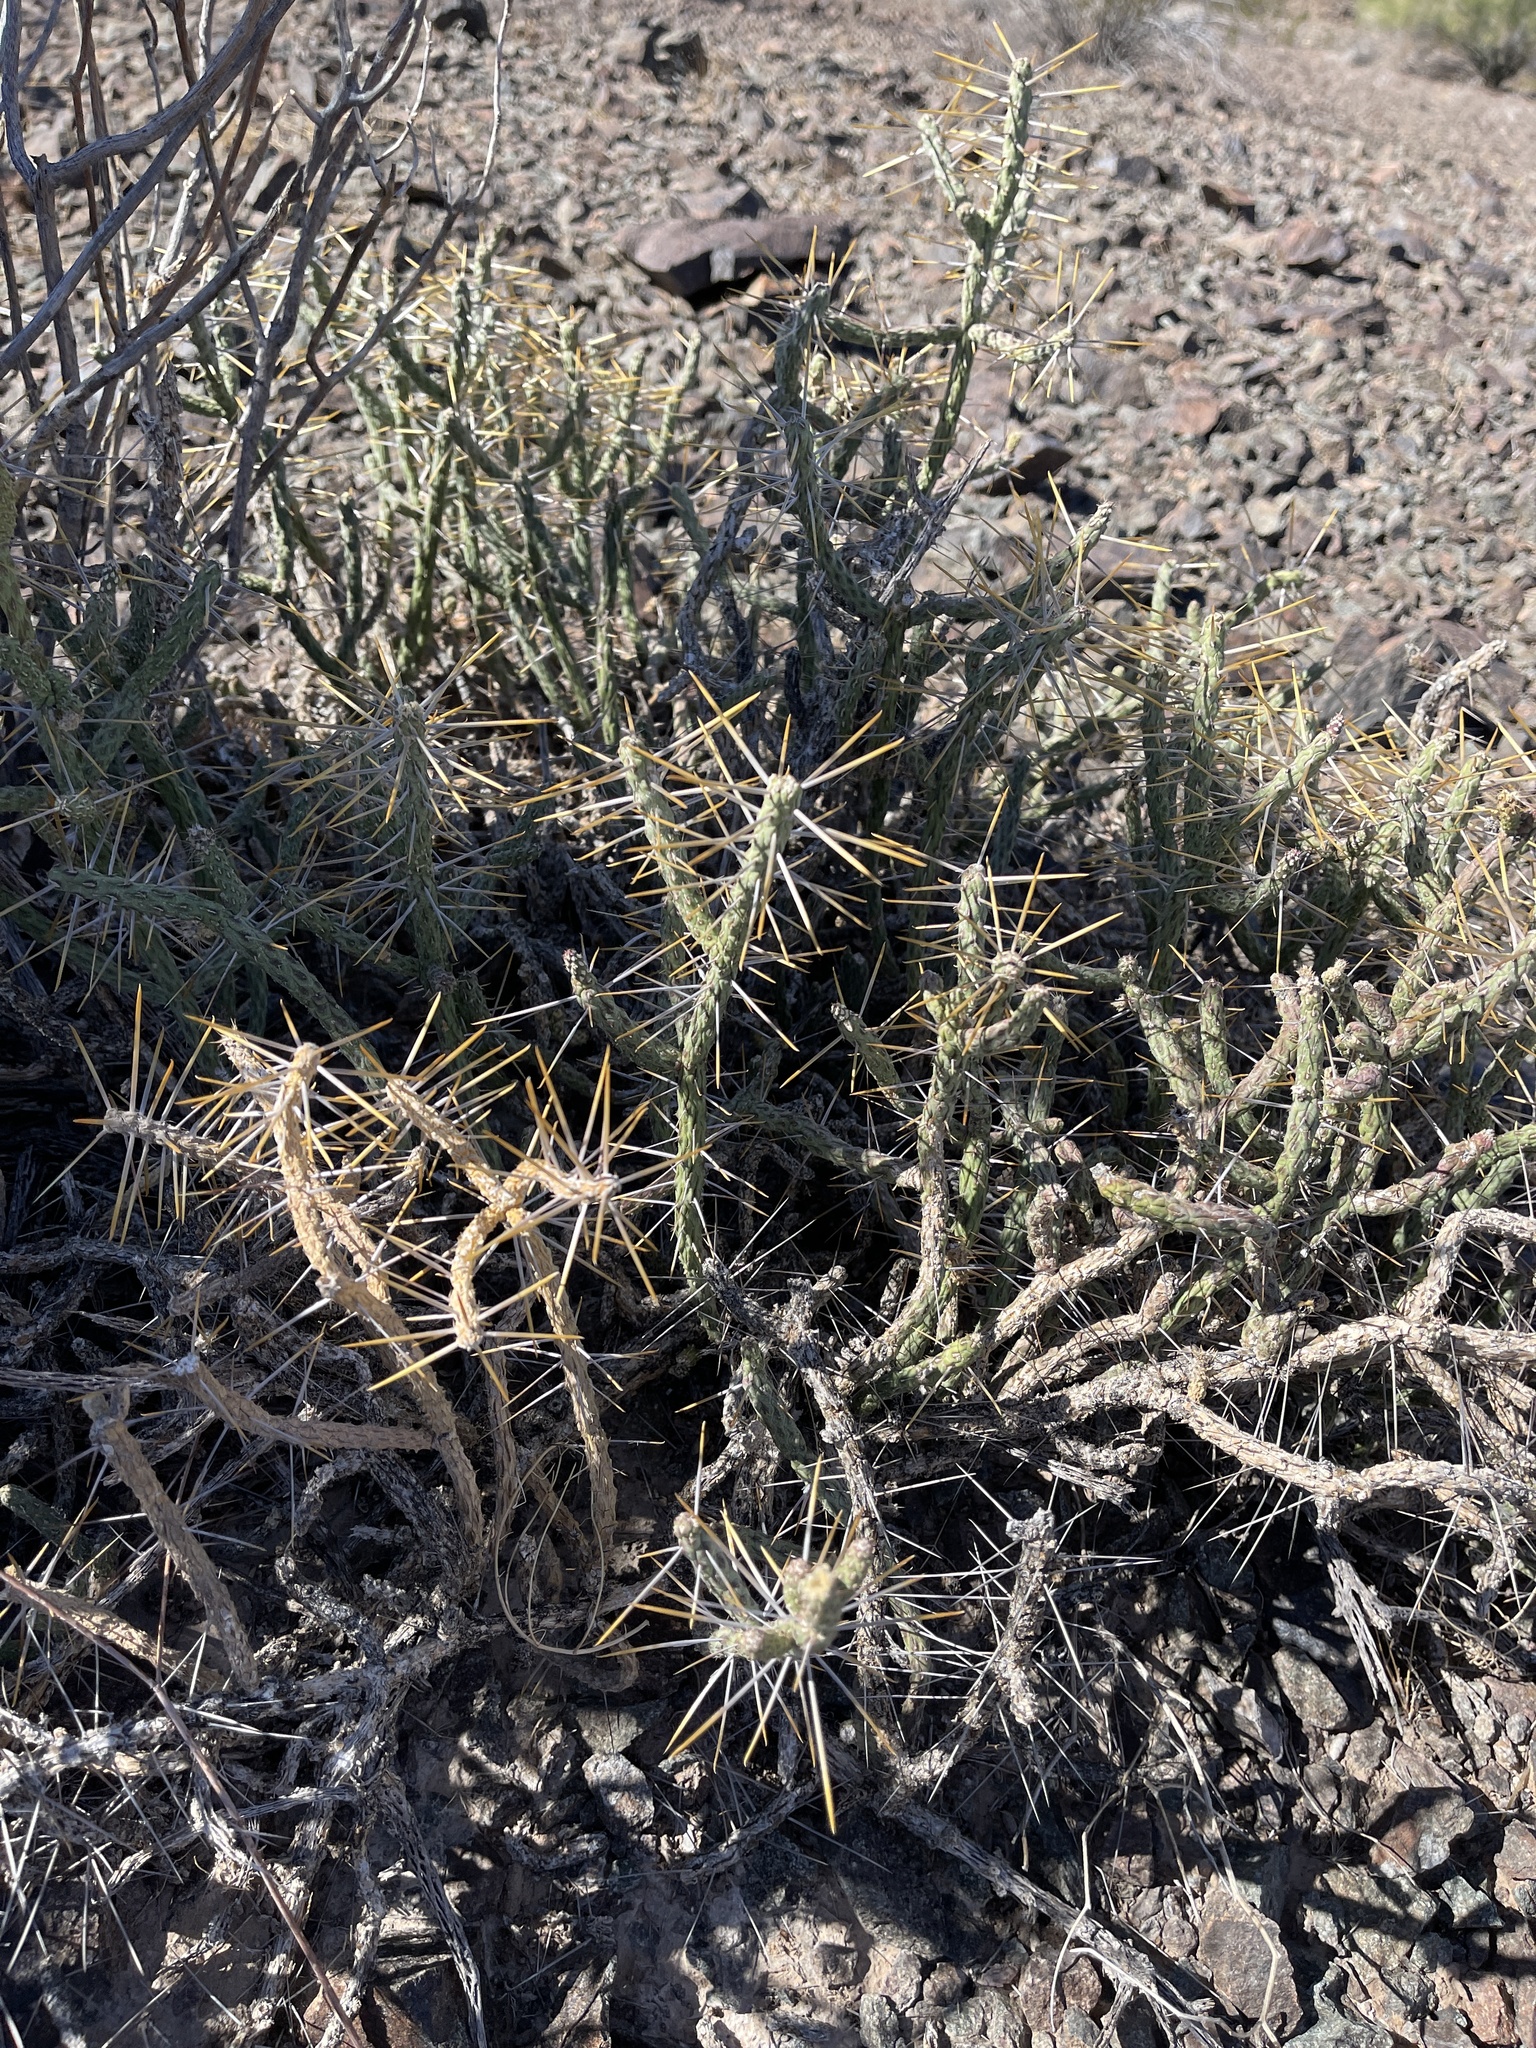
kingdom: Plantae
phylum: Tracheophyta
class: Magnoliopsida
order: Caryophyllales
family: Cactaceae
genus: Cylindropuntia
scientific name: Cylindropuntia ramosissima
